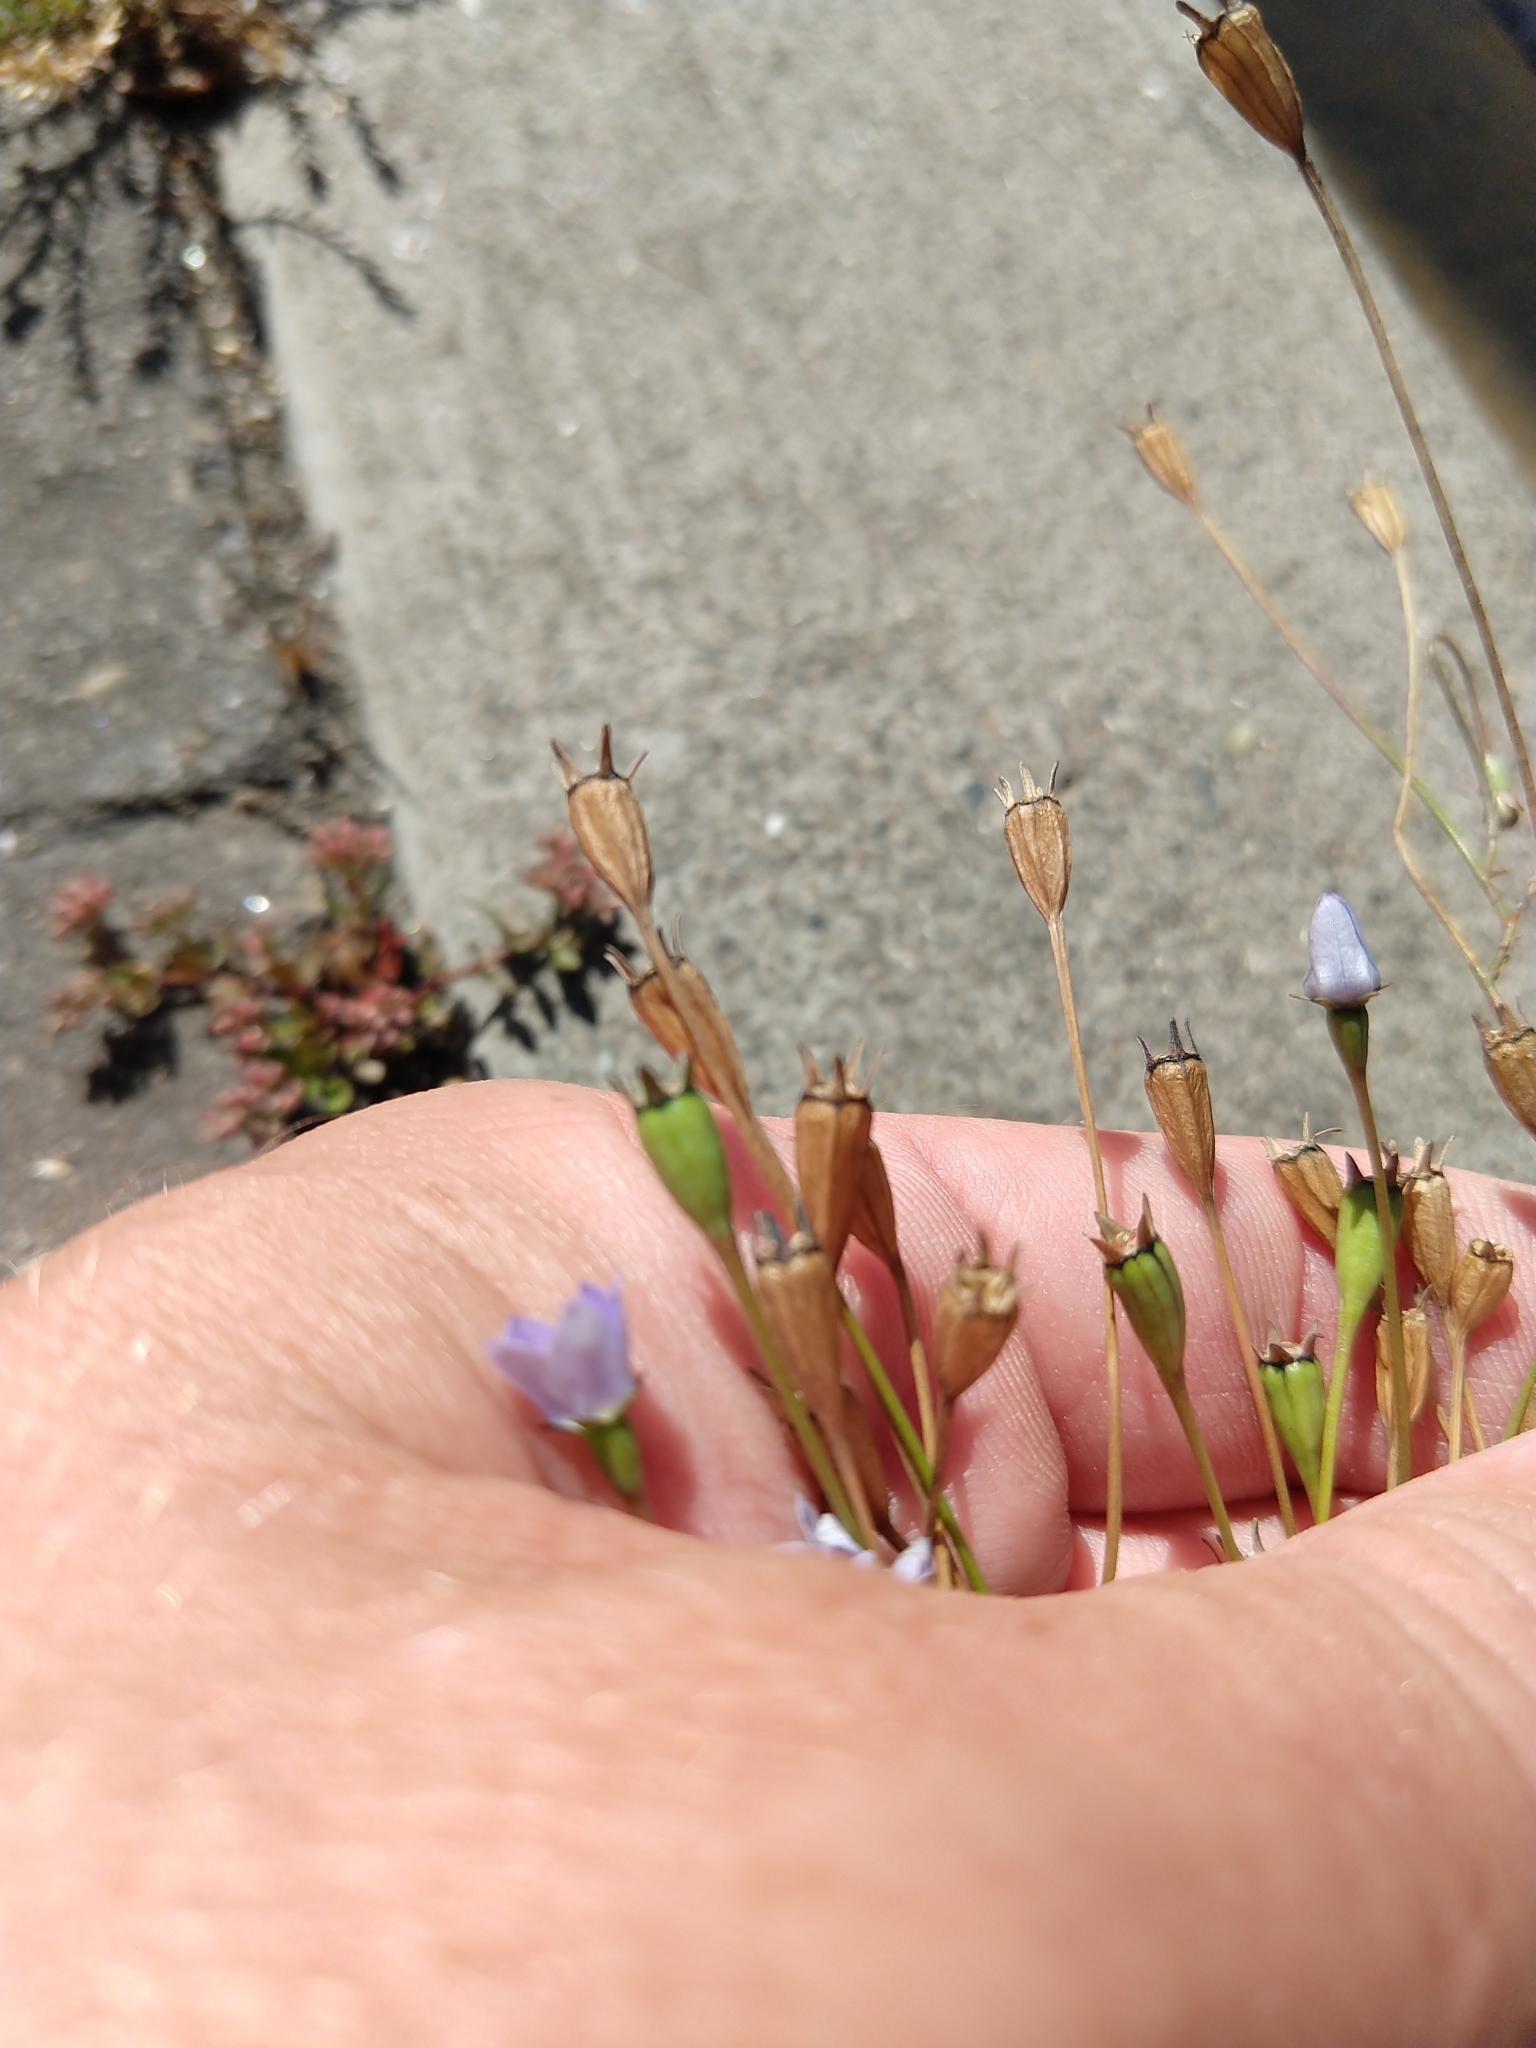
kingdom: Plantae
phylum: Tracheophyta
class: Magnoliopsida
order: Asterales
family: Campanulaceae
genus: Wahlenbergia
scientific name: Wahlenbergia marginata
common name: Southern rockbell
